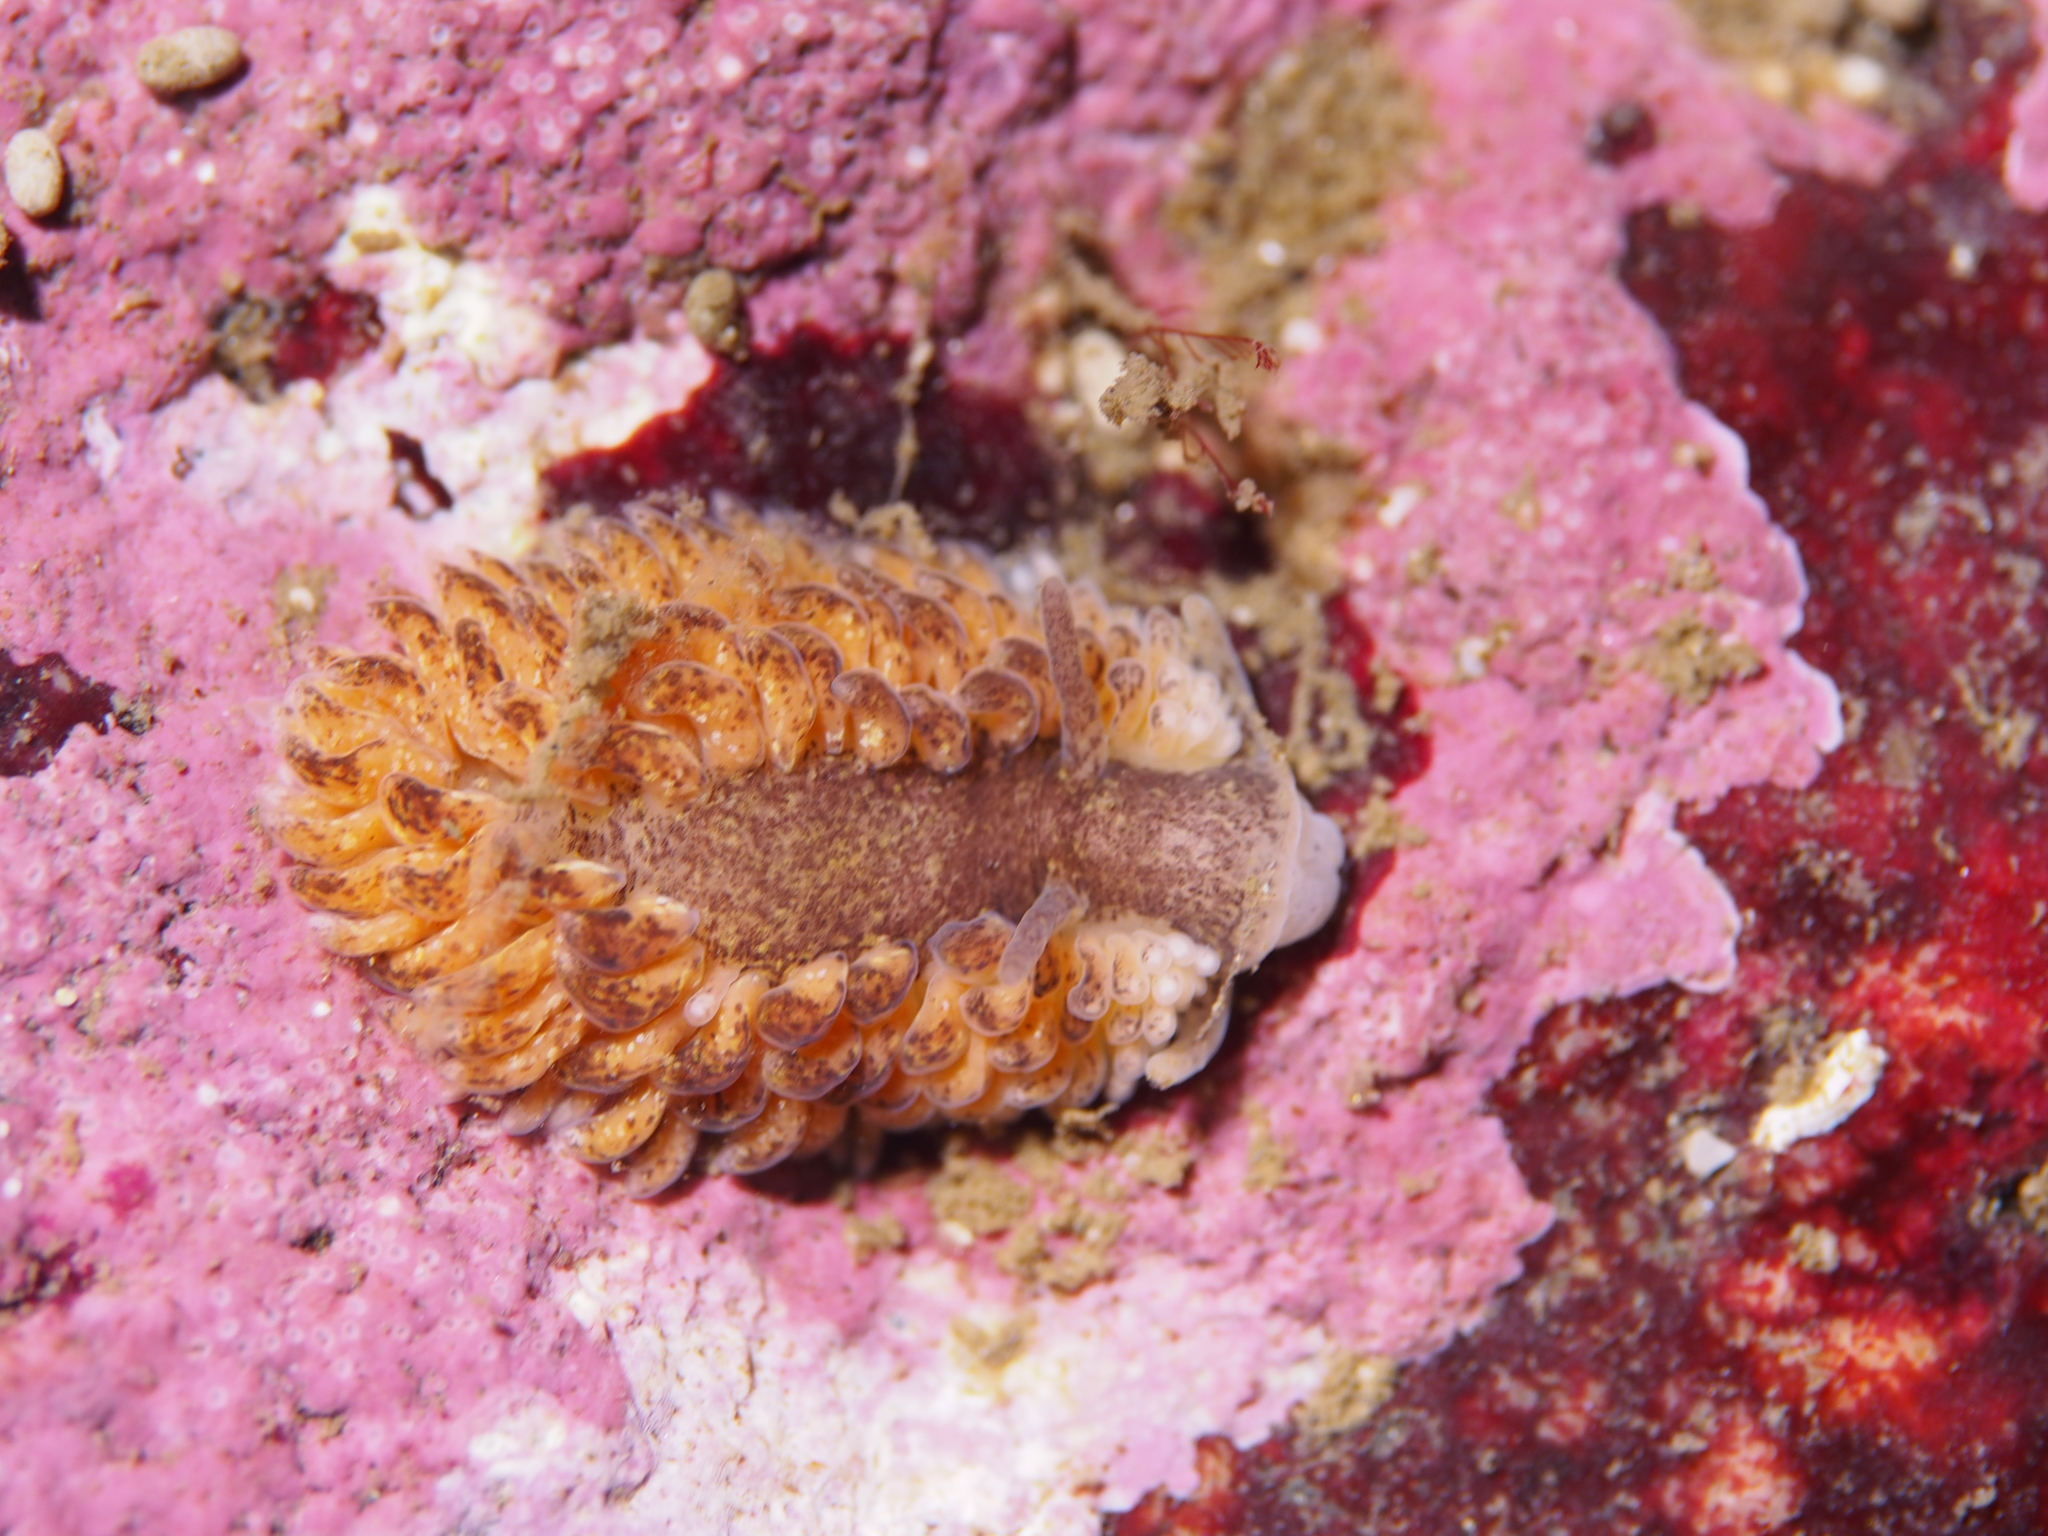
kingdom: Animalia
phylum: Mollusca
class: Gastropoda
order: Nudibranchia
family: Aeolidiidae
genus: Aeolidia
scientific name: Aeolidia papillosa
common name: Common grey sea slug
